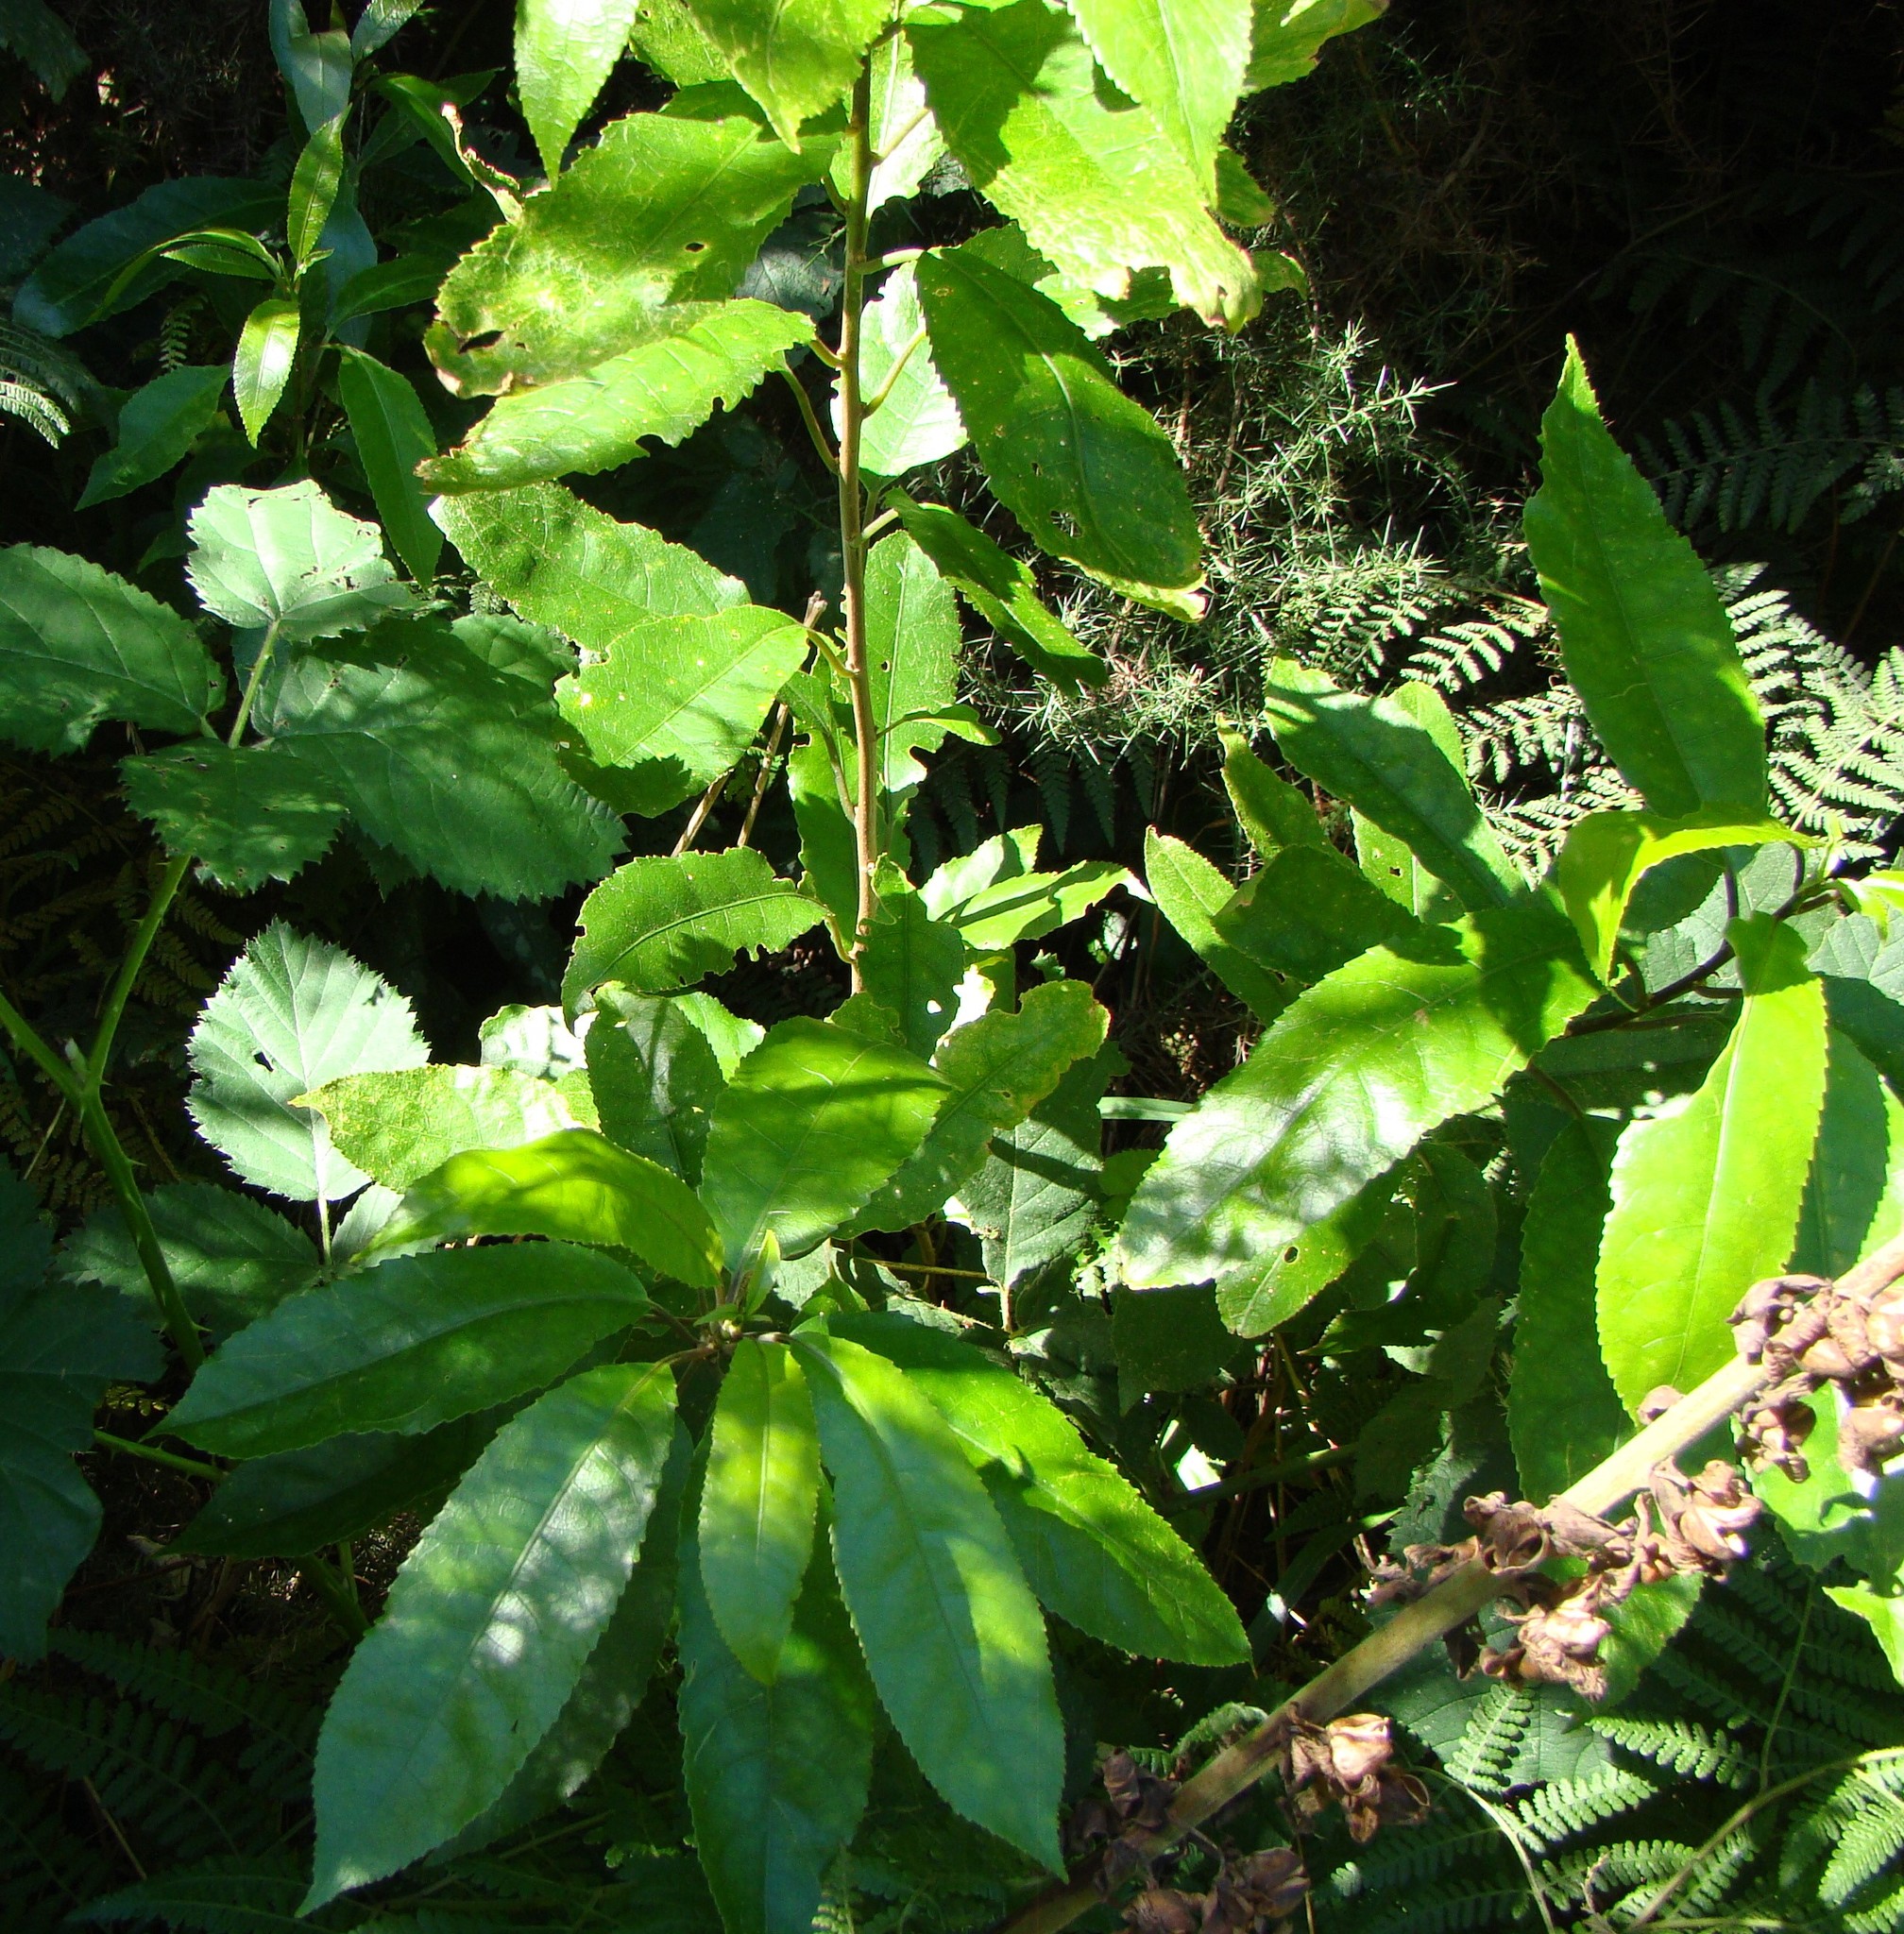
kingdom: Plantae
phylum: Tracheophyta
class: Magnoliopsida
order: Malpighiales
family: Violaceae
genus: Melicytus
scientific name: Melicytus ramiflorus
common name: Mahoe
